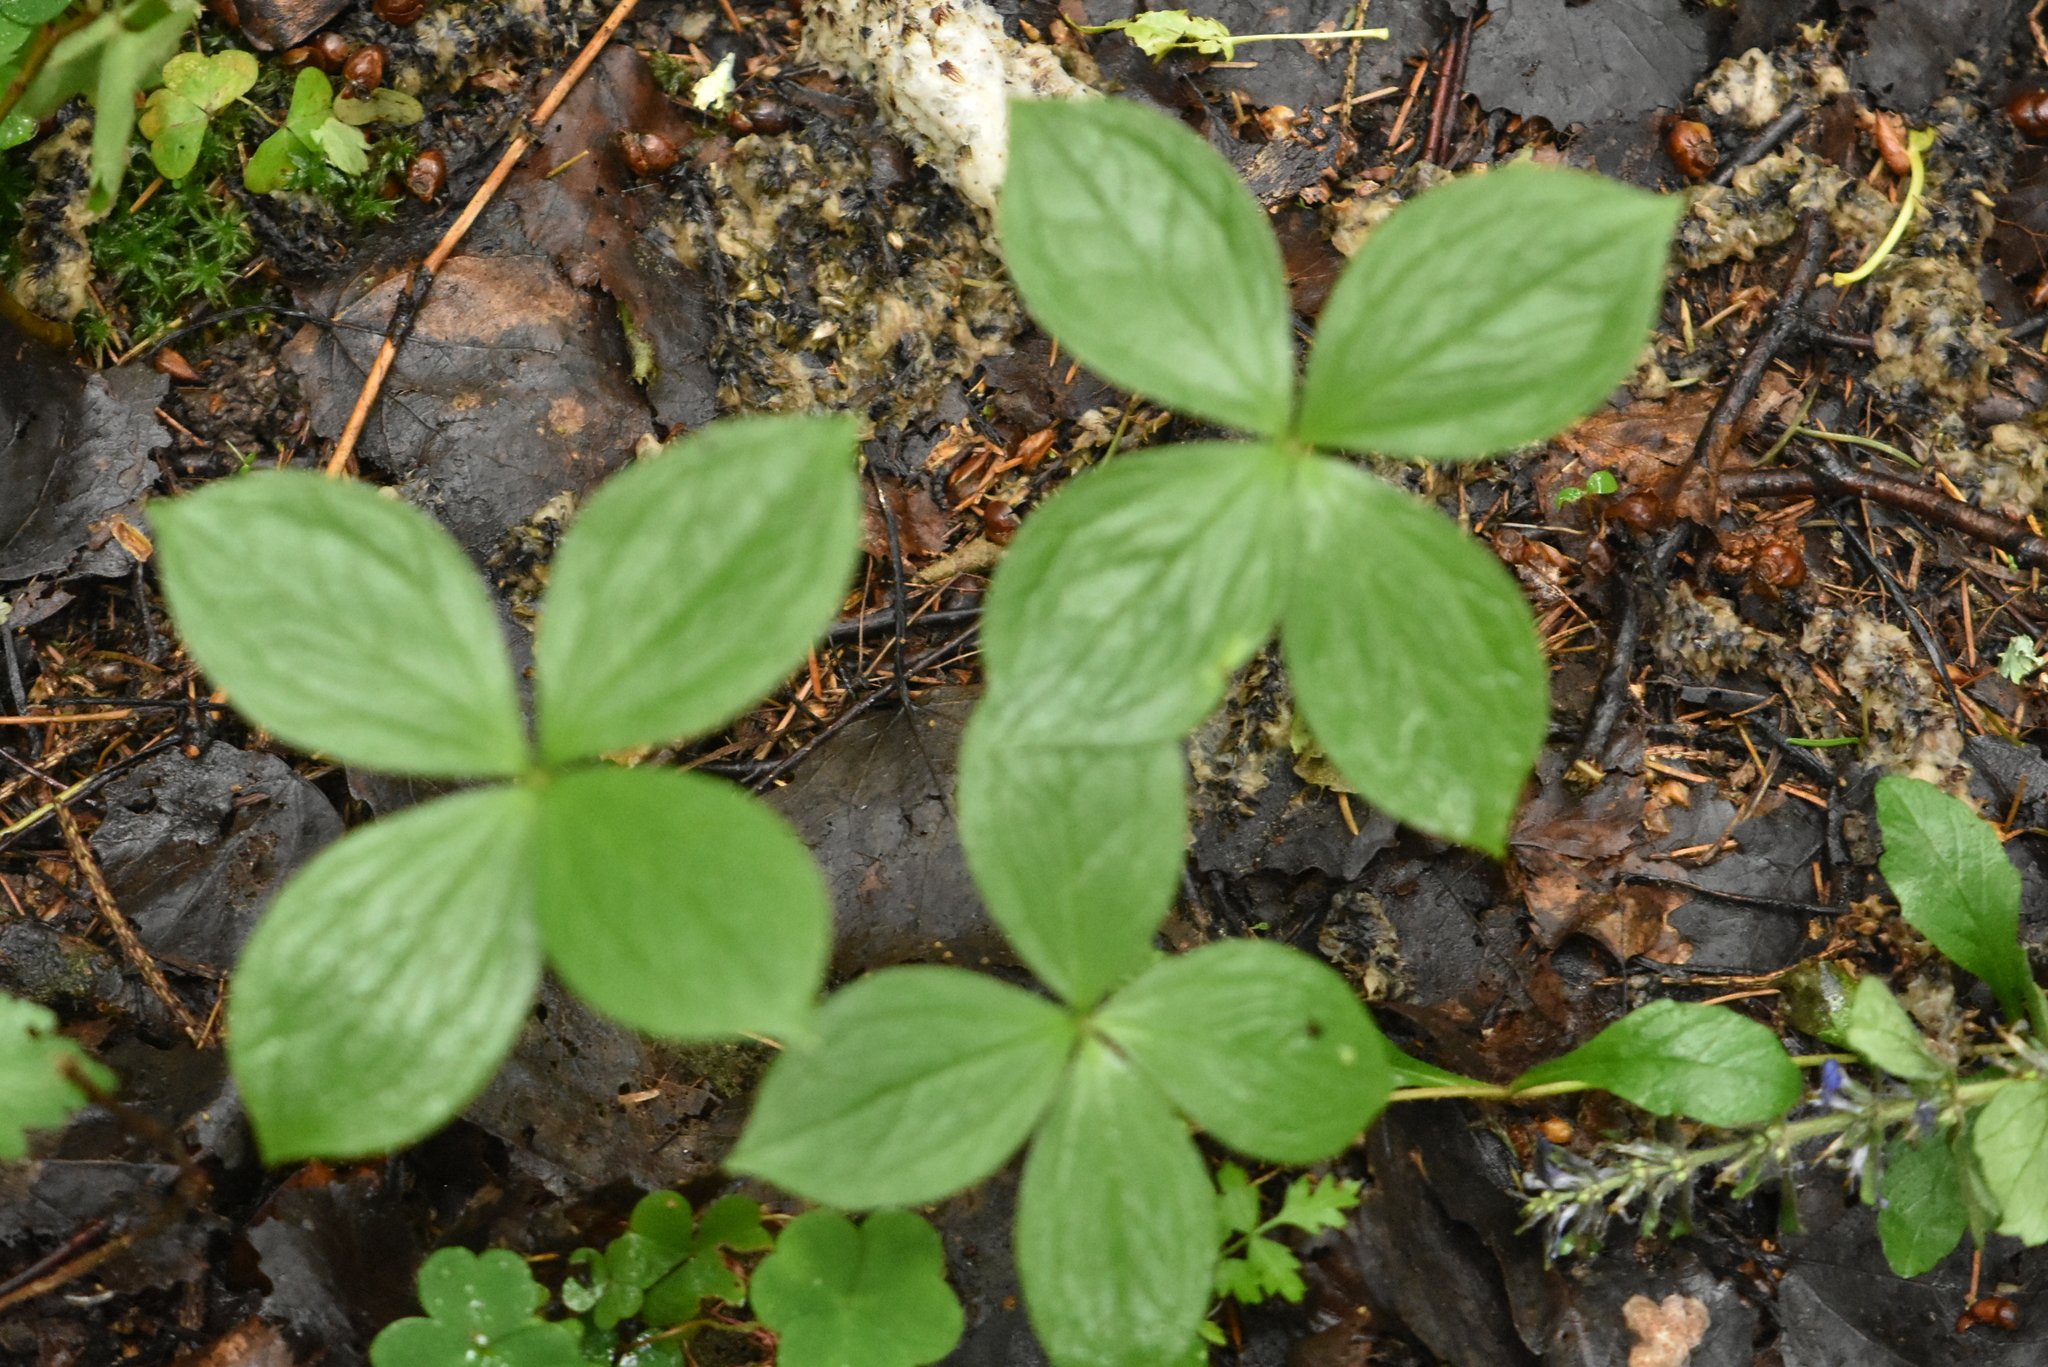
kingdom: Plantae
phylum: Tracheophyta
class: Liliopsida
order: Liliales
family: Melanthiaceae
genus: Paris
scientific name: Paris quadrifolia
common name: Herb-paris
